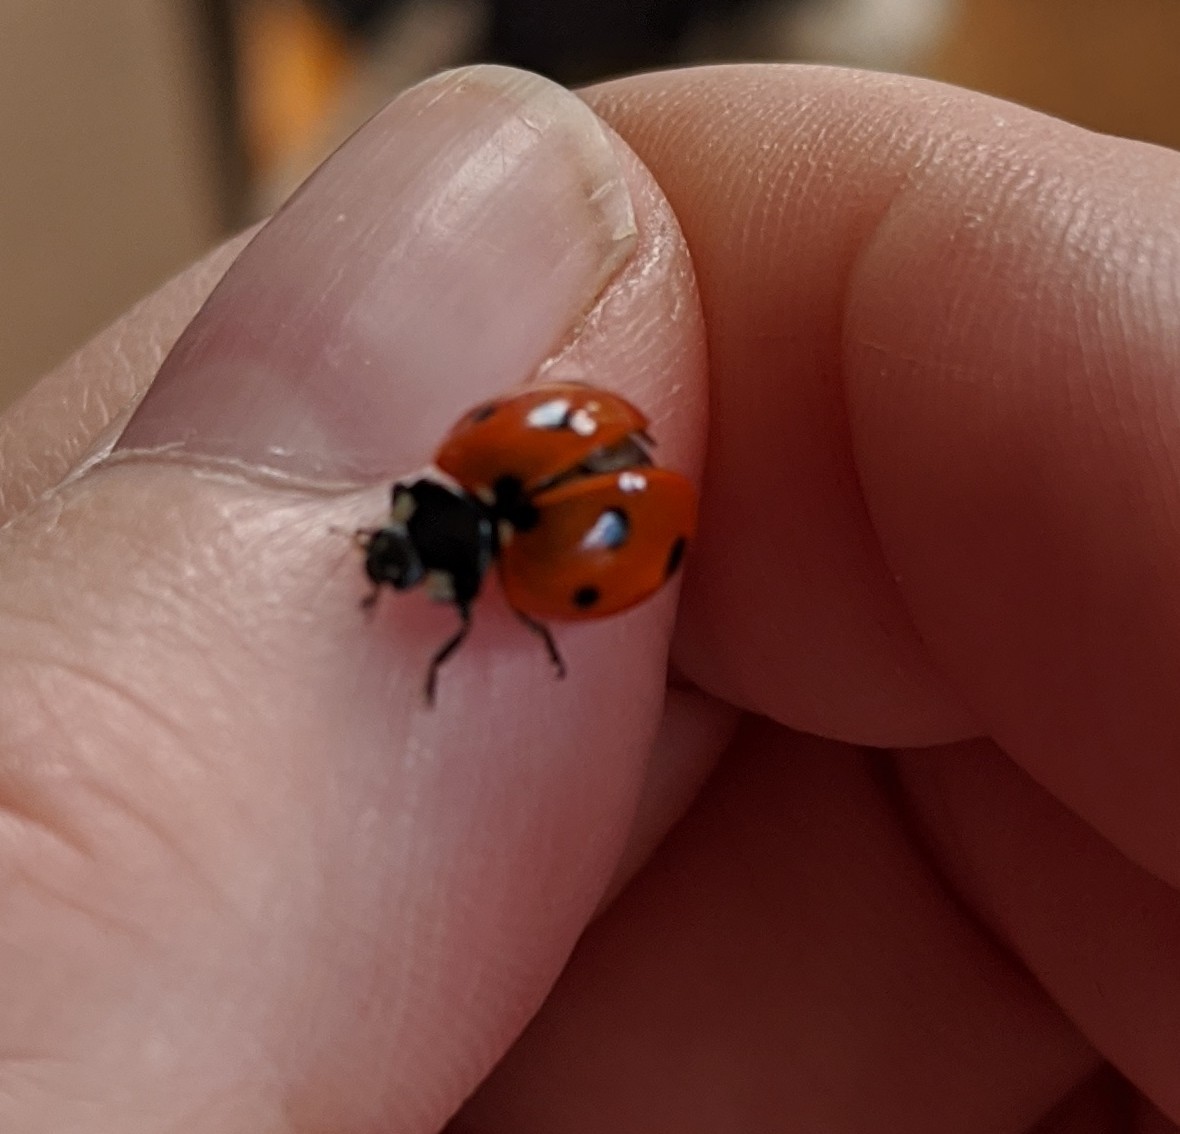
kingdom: Animalia
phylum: Arthropoda
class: Insecta
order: Coleoptera
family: Coccinellidae
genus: Coccinella
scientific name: Coccinella septempunctata
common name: Sevenspotted lady beetle
